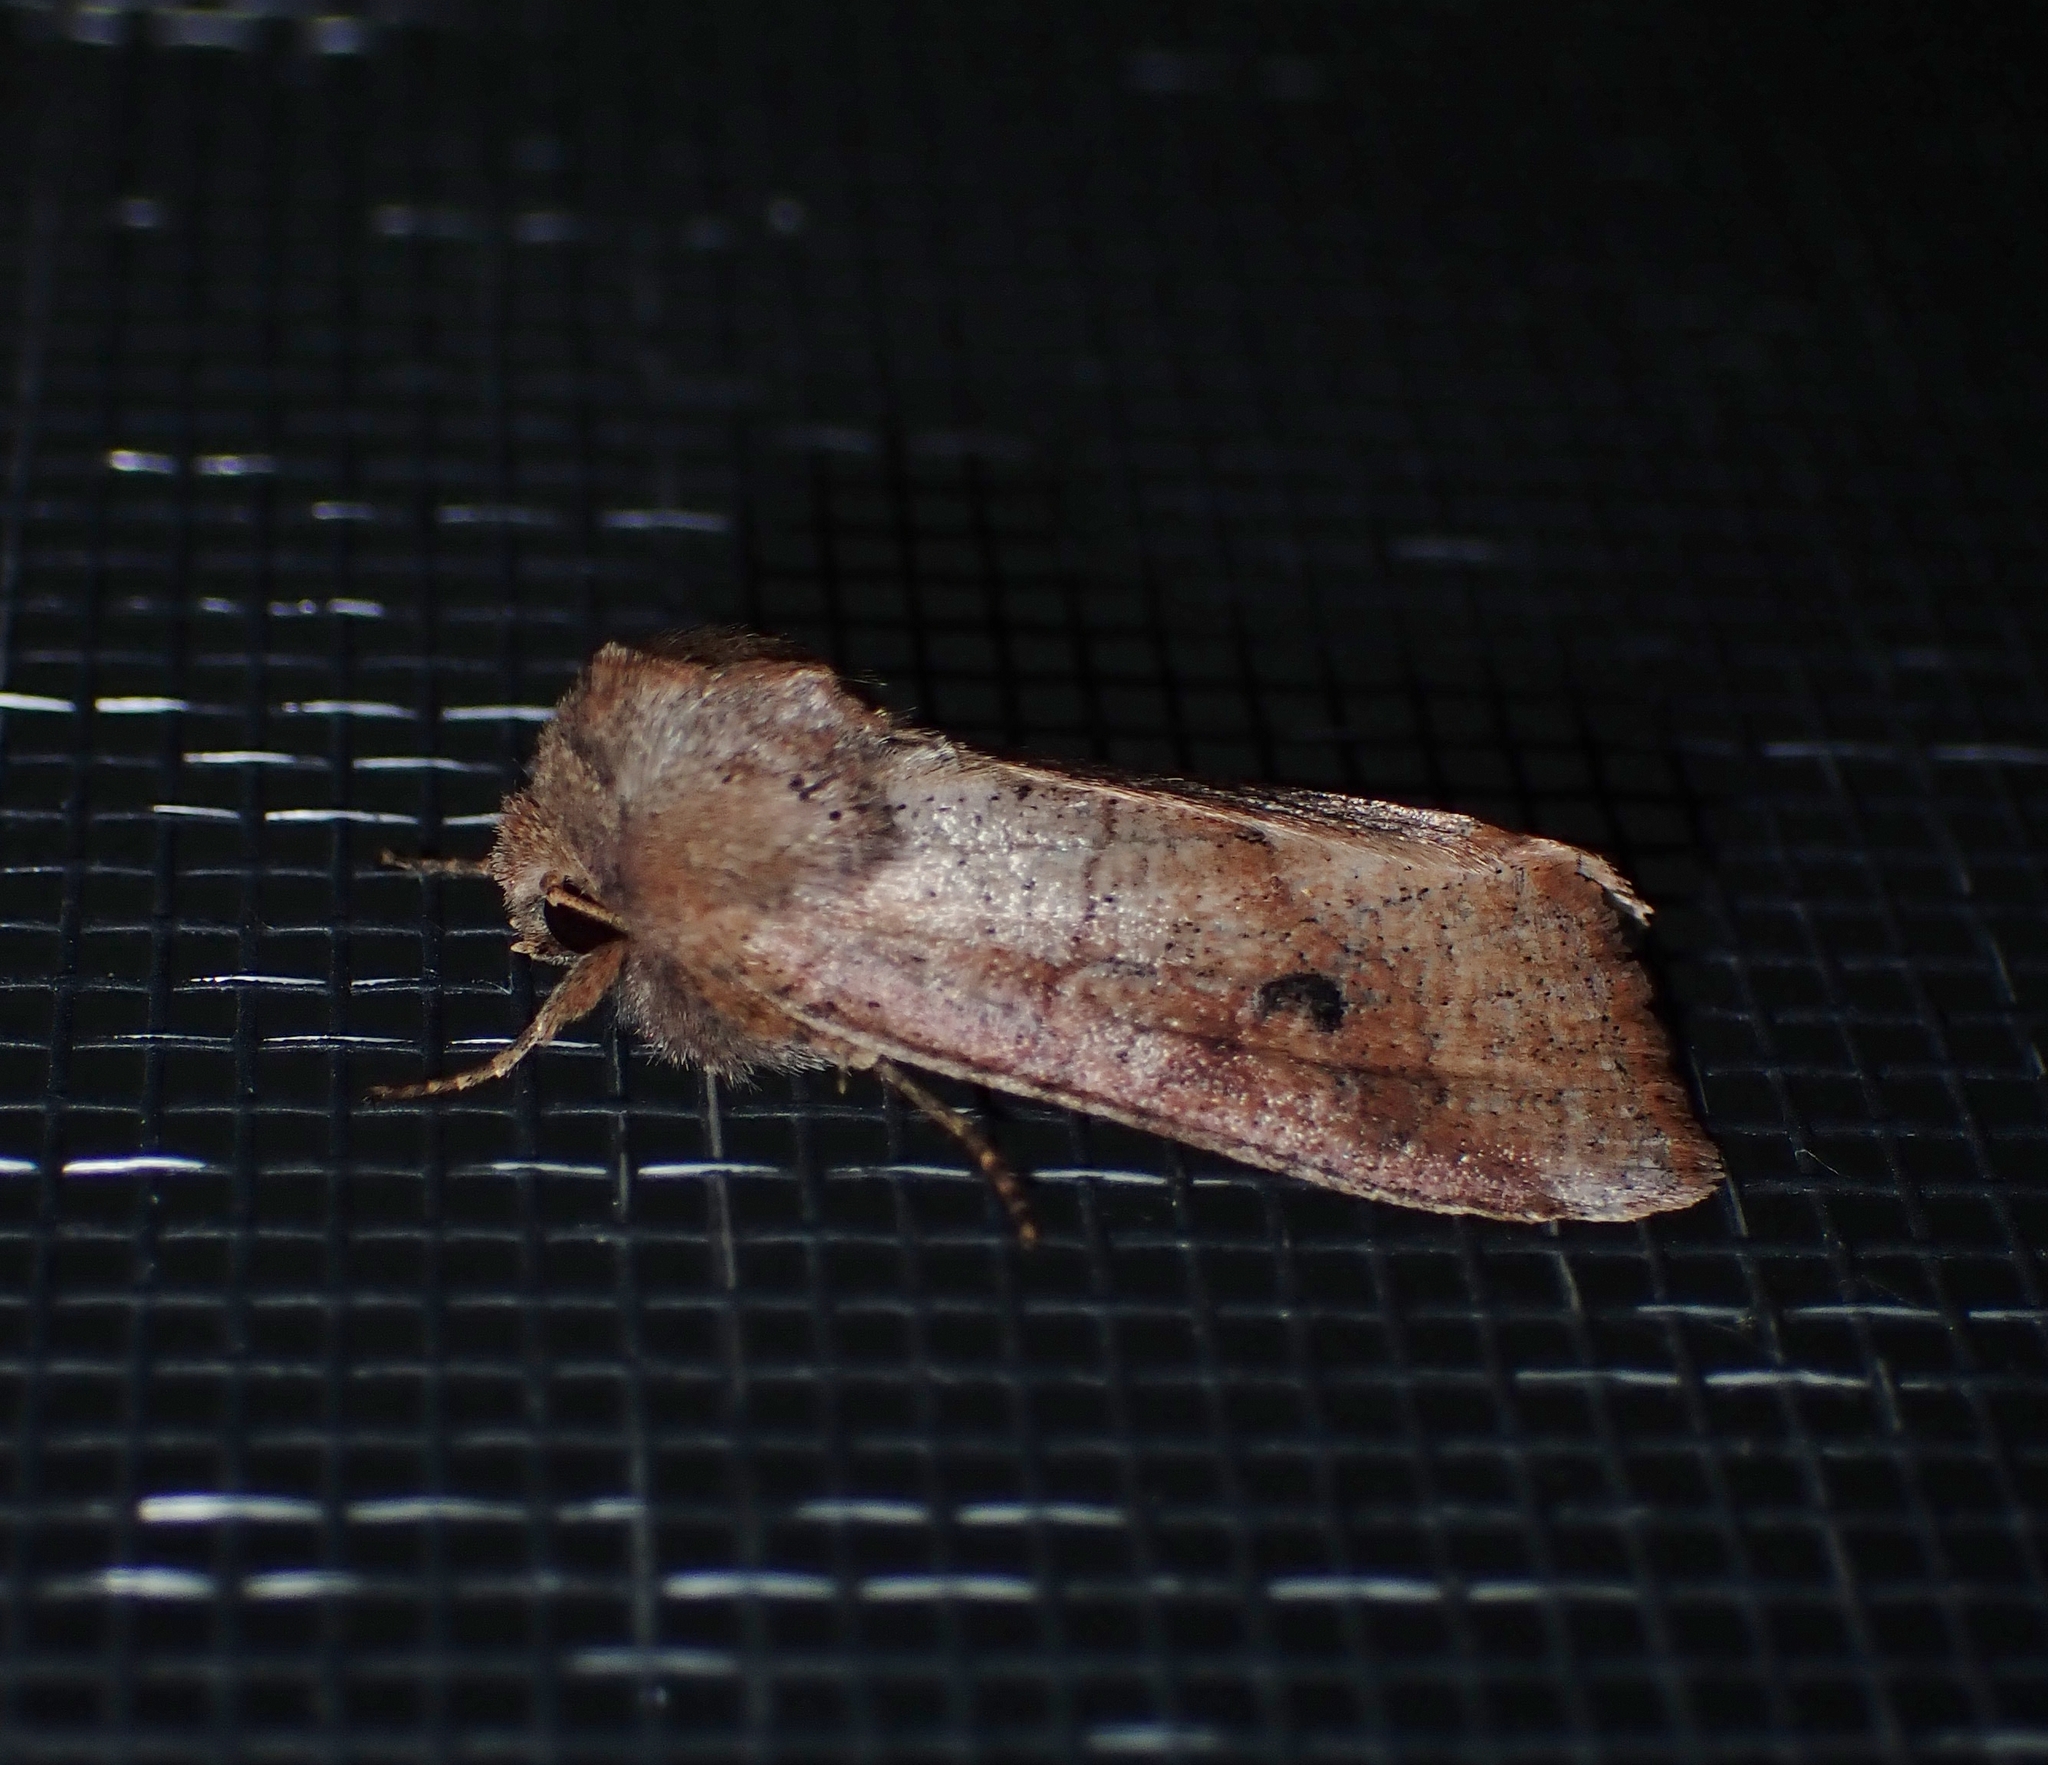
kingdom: Animalia
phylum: Arthropoda
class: Insecta
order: Lepidoptera
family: Noctuidae
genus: Crocigrapha
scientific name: Crocigrapha normani
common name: Norman's quaker
